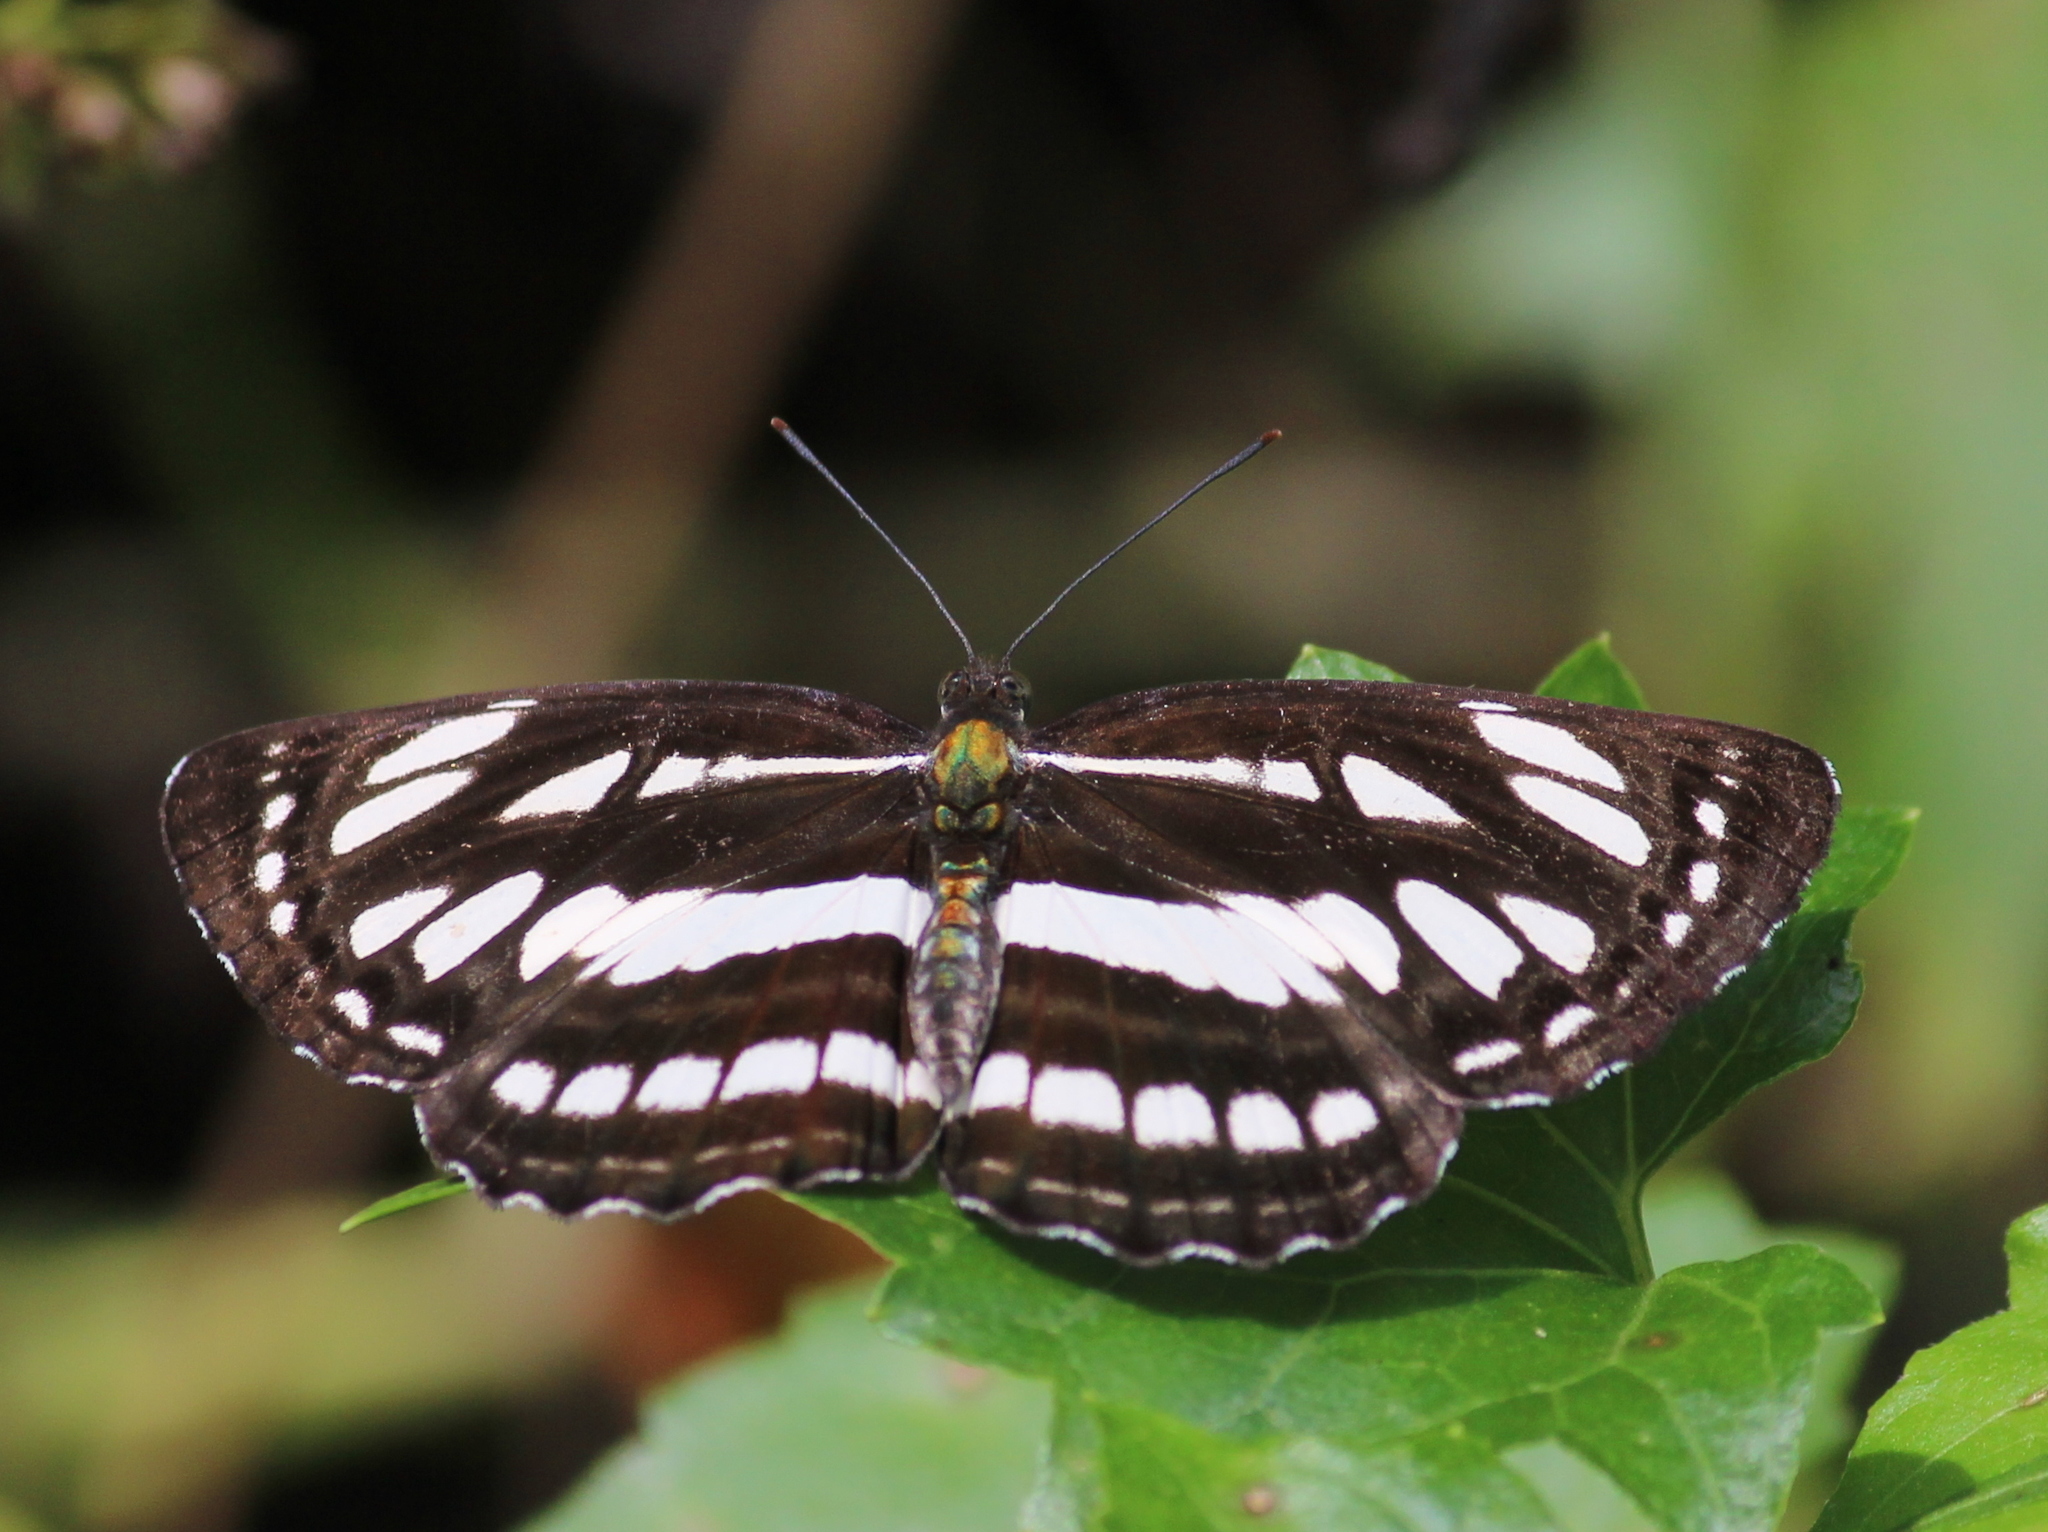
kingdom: Animalia
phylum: Arthropoda
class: Insecta
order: Lepidoptera
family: Nymphalidae
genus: Neptis
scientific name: Neptis hylas
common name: Common sailer
